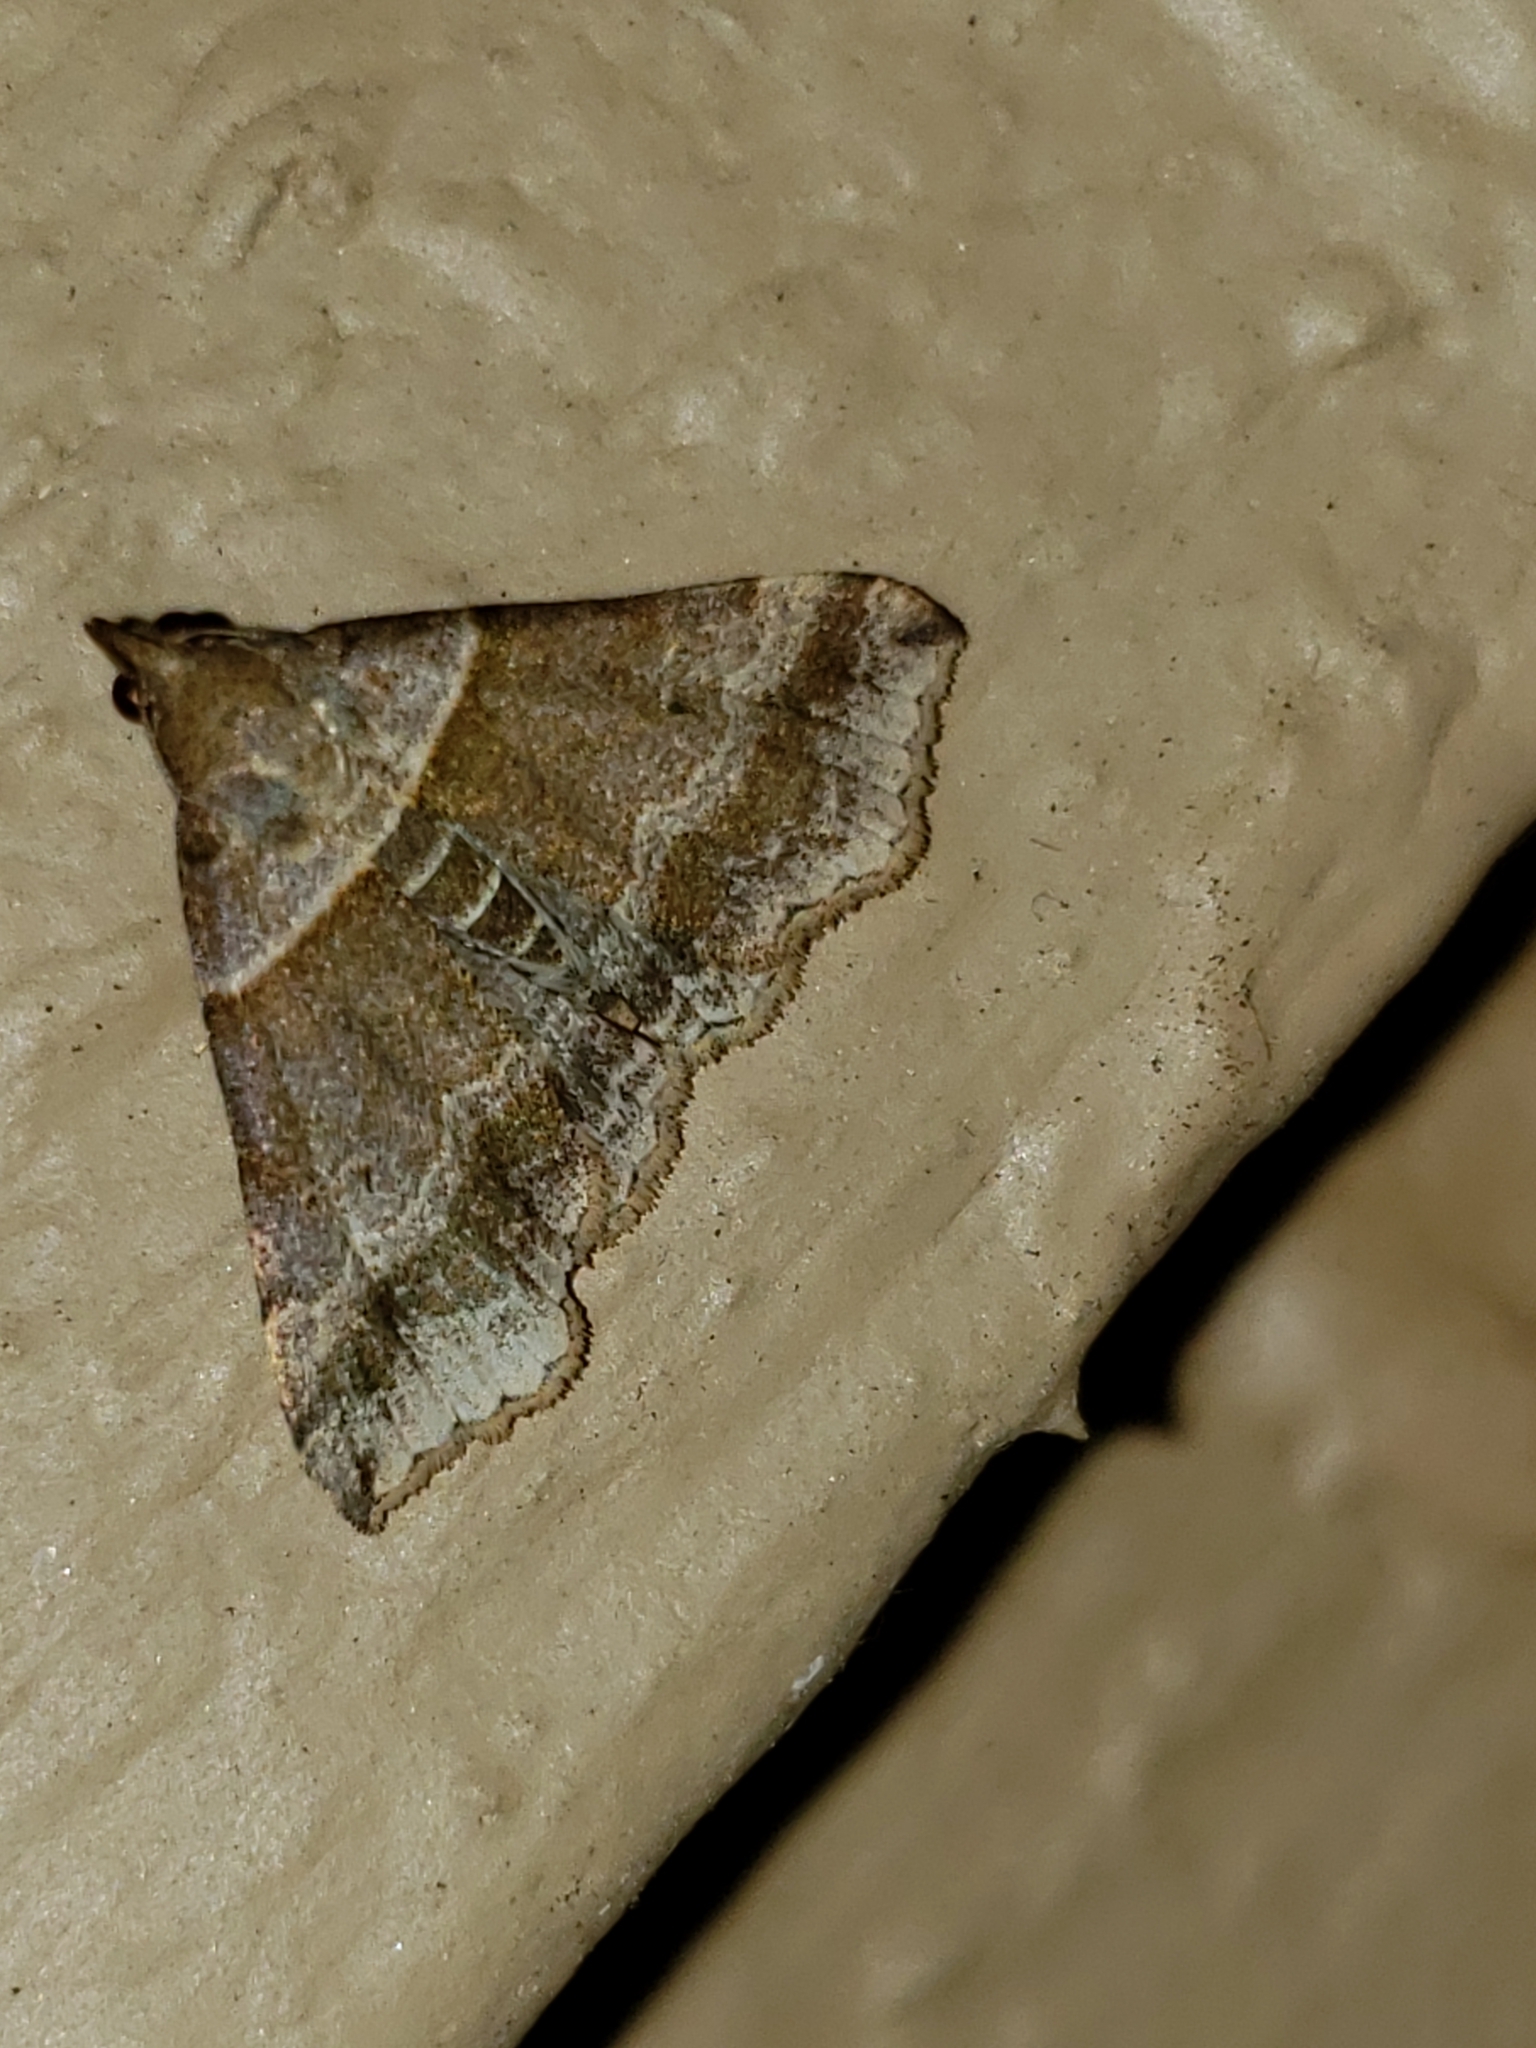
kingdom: Animalia
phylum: Arthropoda
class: Insecta
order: Lepidoptera
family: Erebidae
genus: Phaeolita
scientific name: Phaeolita pyramusalis
